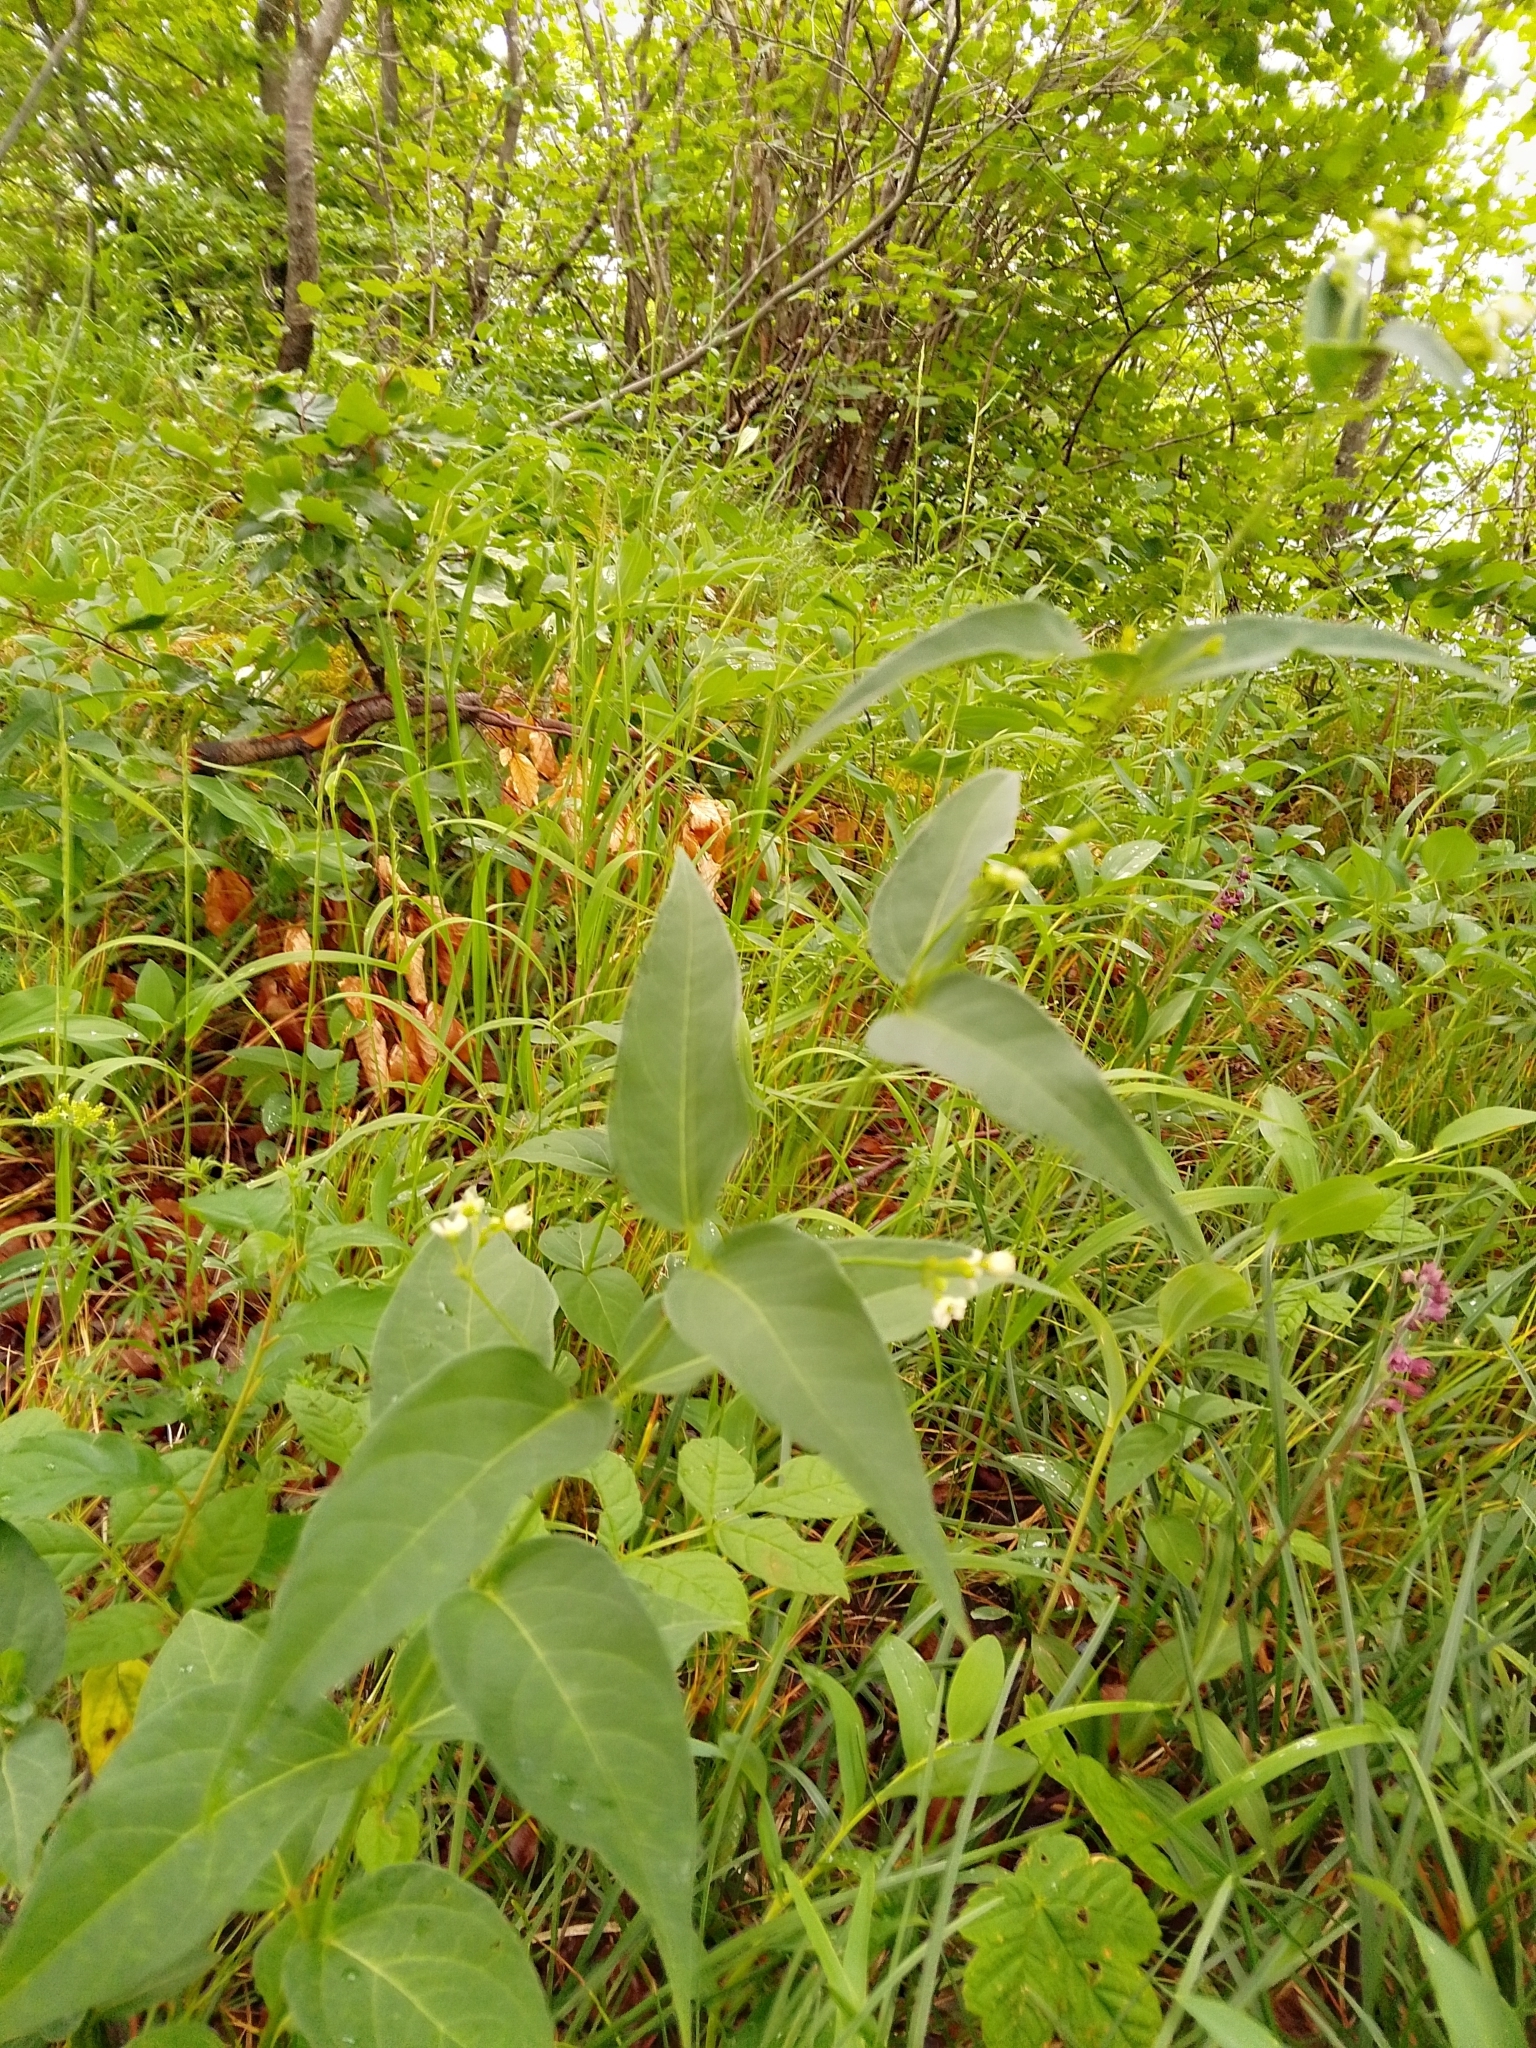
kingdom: Plantae
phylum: Tracheophyta
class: Magnoliopsida
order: Gentianales
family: Apocynaceae
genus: Vincetoxicum
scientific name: Vincetoxicum hirundinaria
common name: White swallowwort
